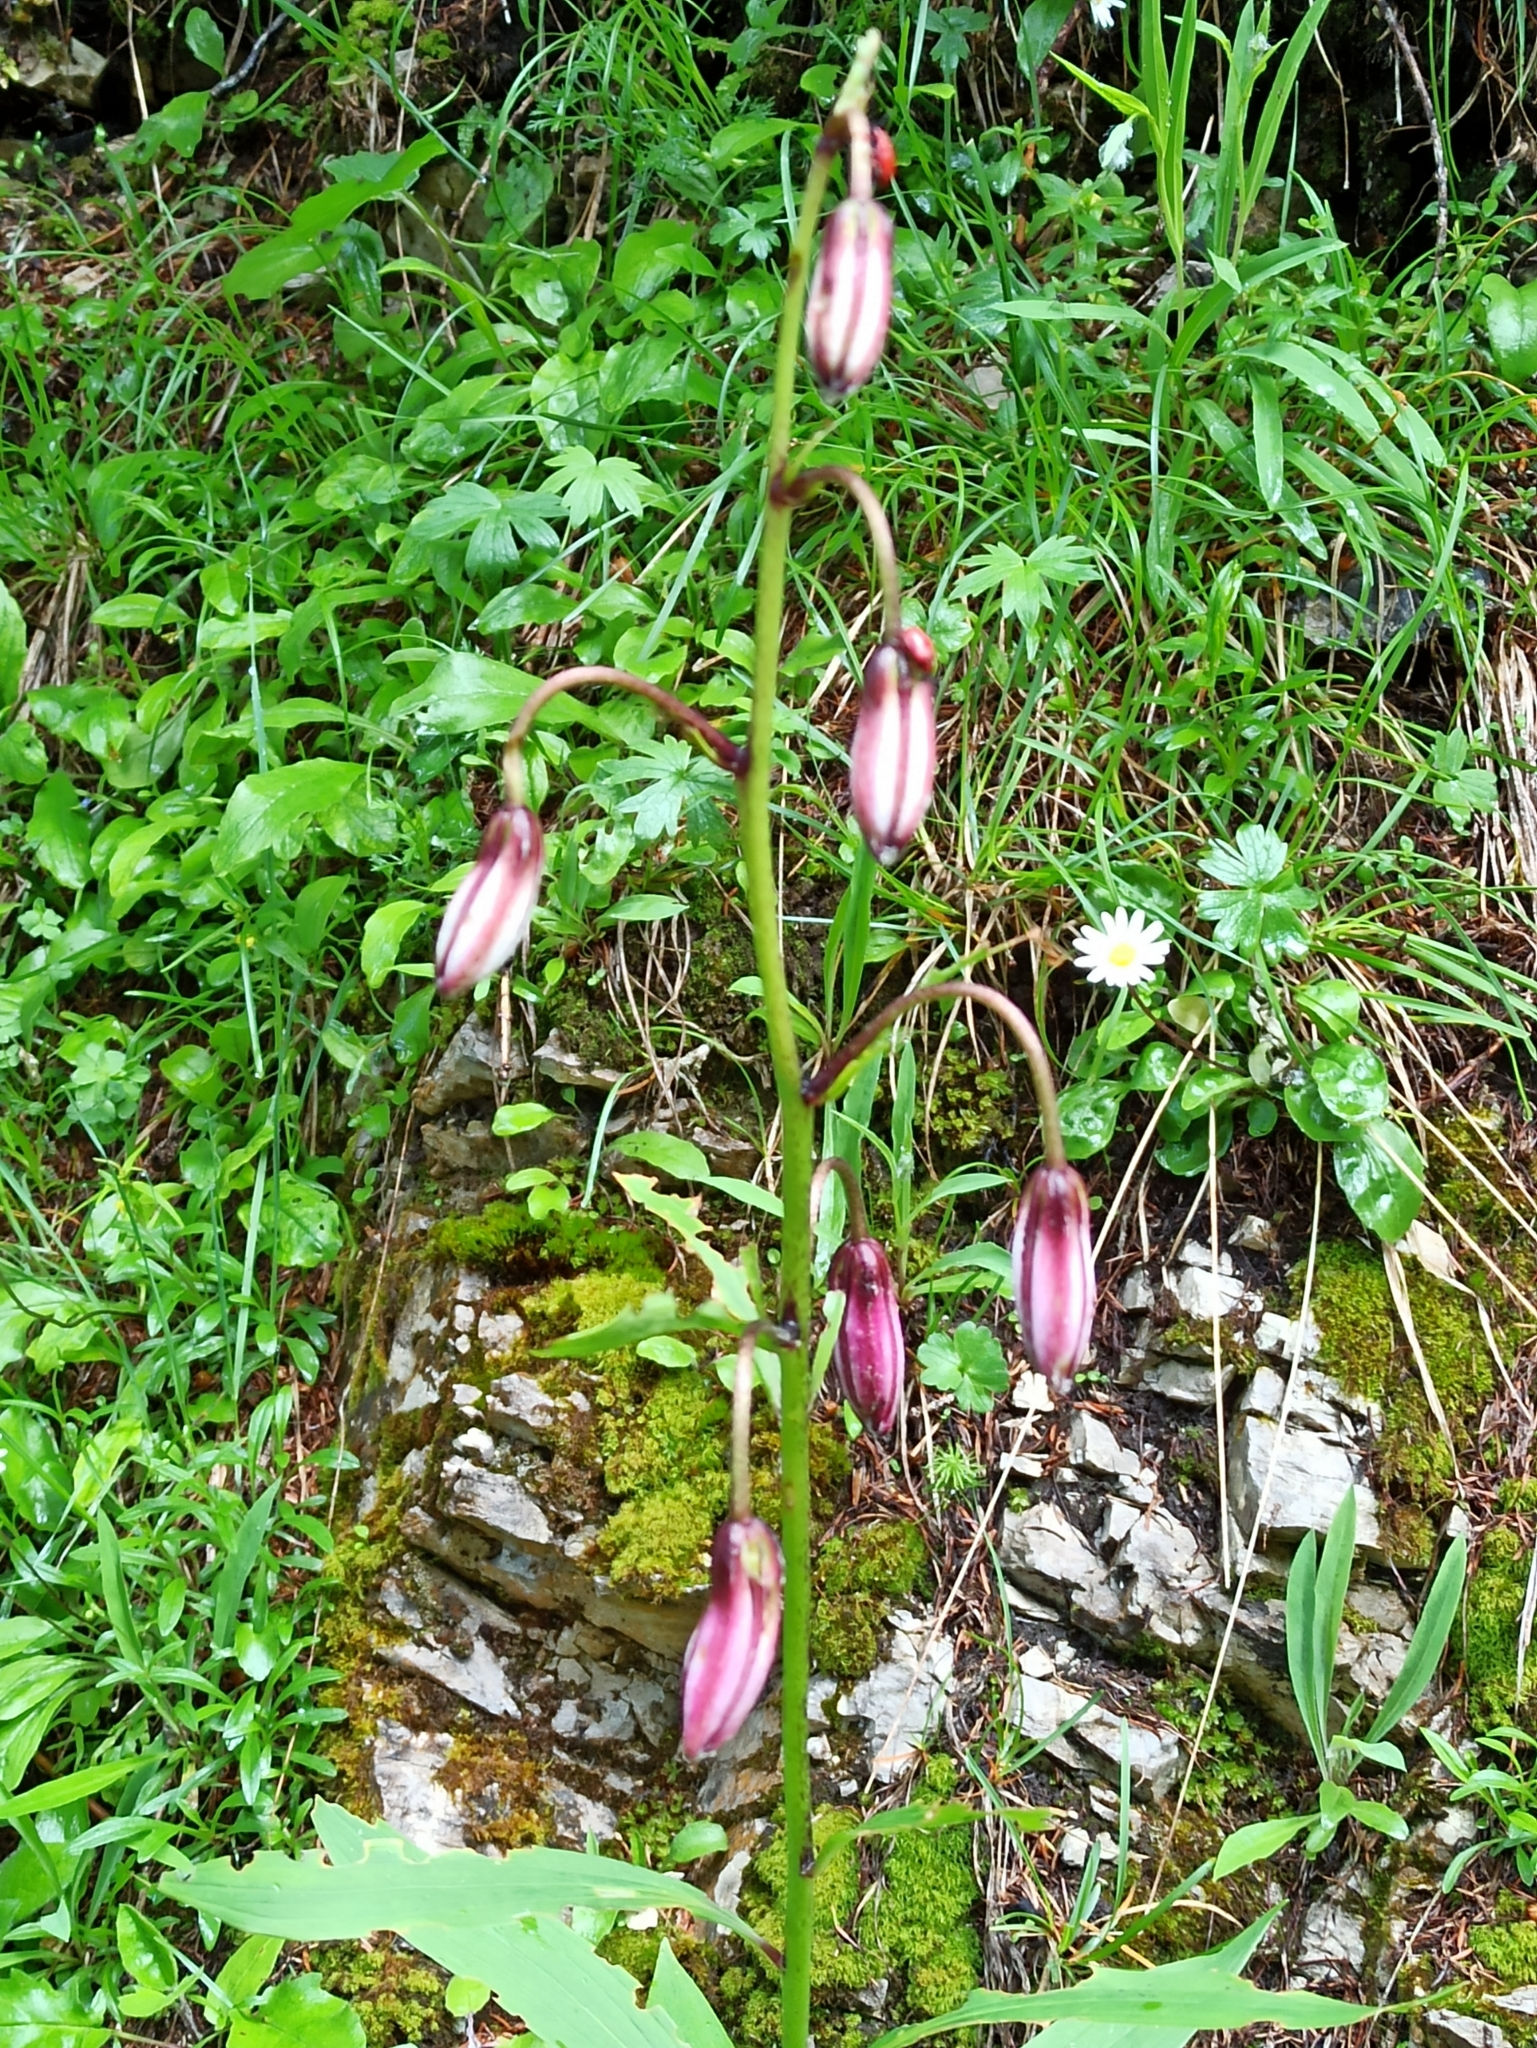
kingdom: Plantae
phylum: Tracheophyta
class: Liliopsida
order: Liliales
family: Liliaceae
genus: Lilium
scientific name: Lilium martagon
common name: Martagon lily
